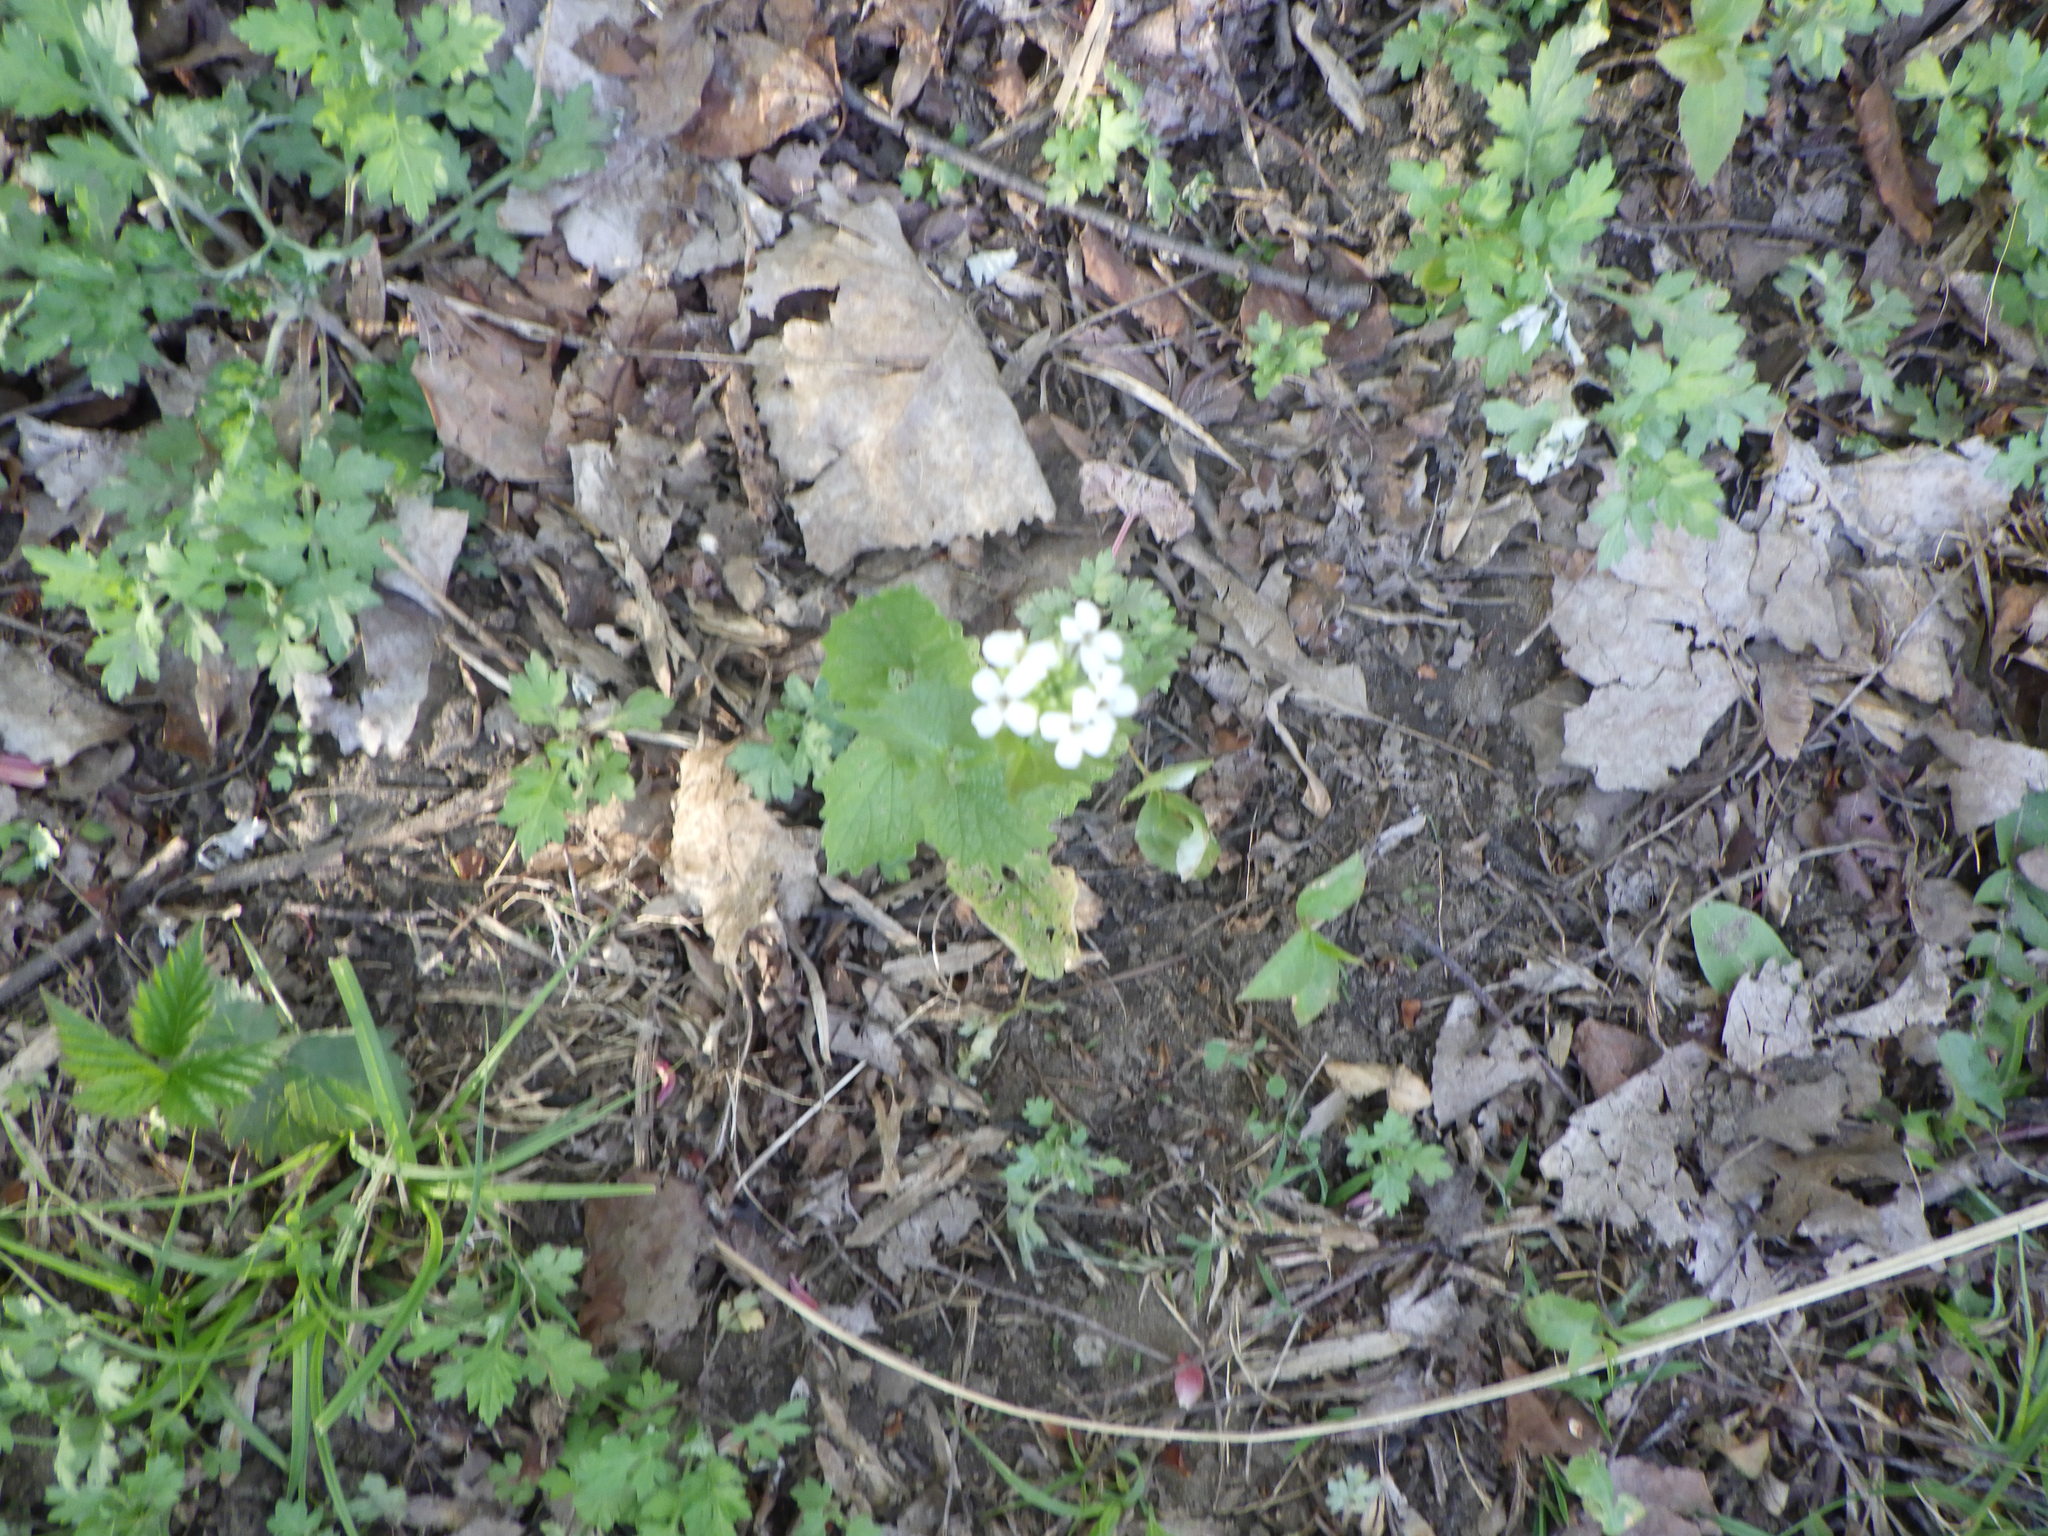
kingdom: Plantae
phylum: Tracheophyta
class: Magnoliopsida
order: Brassicales
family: Brassicaceae
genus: Alliaria
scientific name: Alliaria petiolata
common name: Garlic mustard
